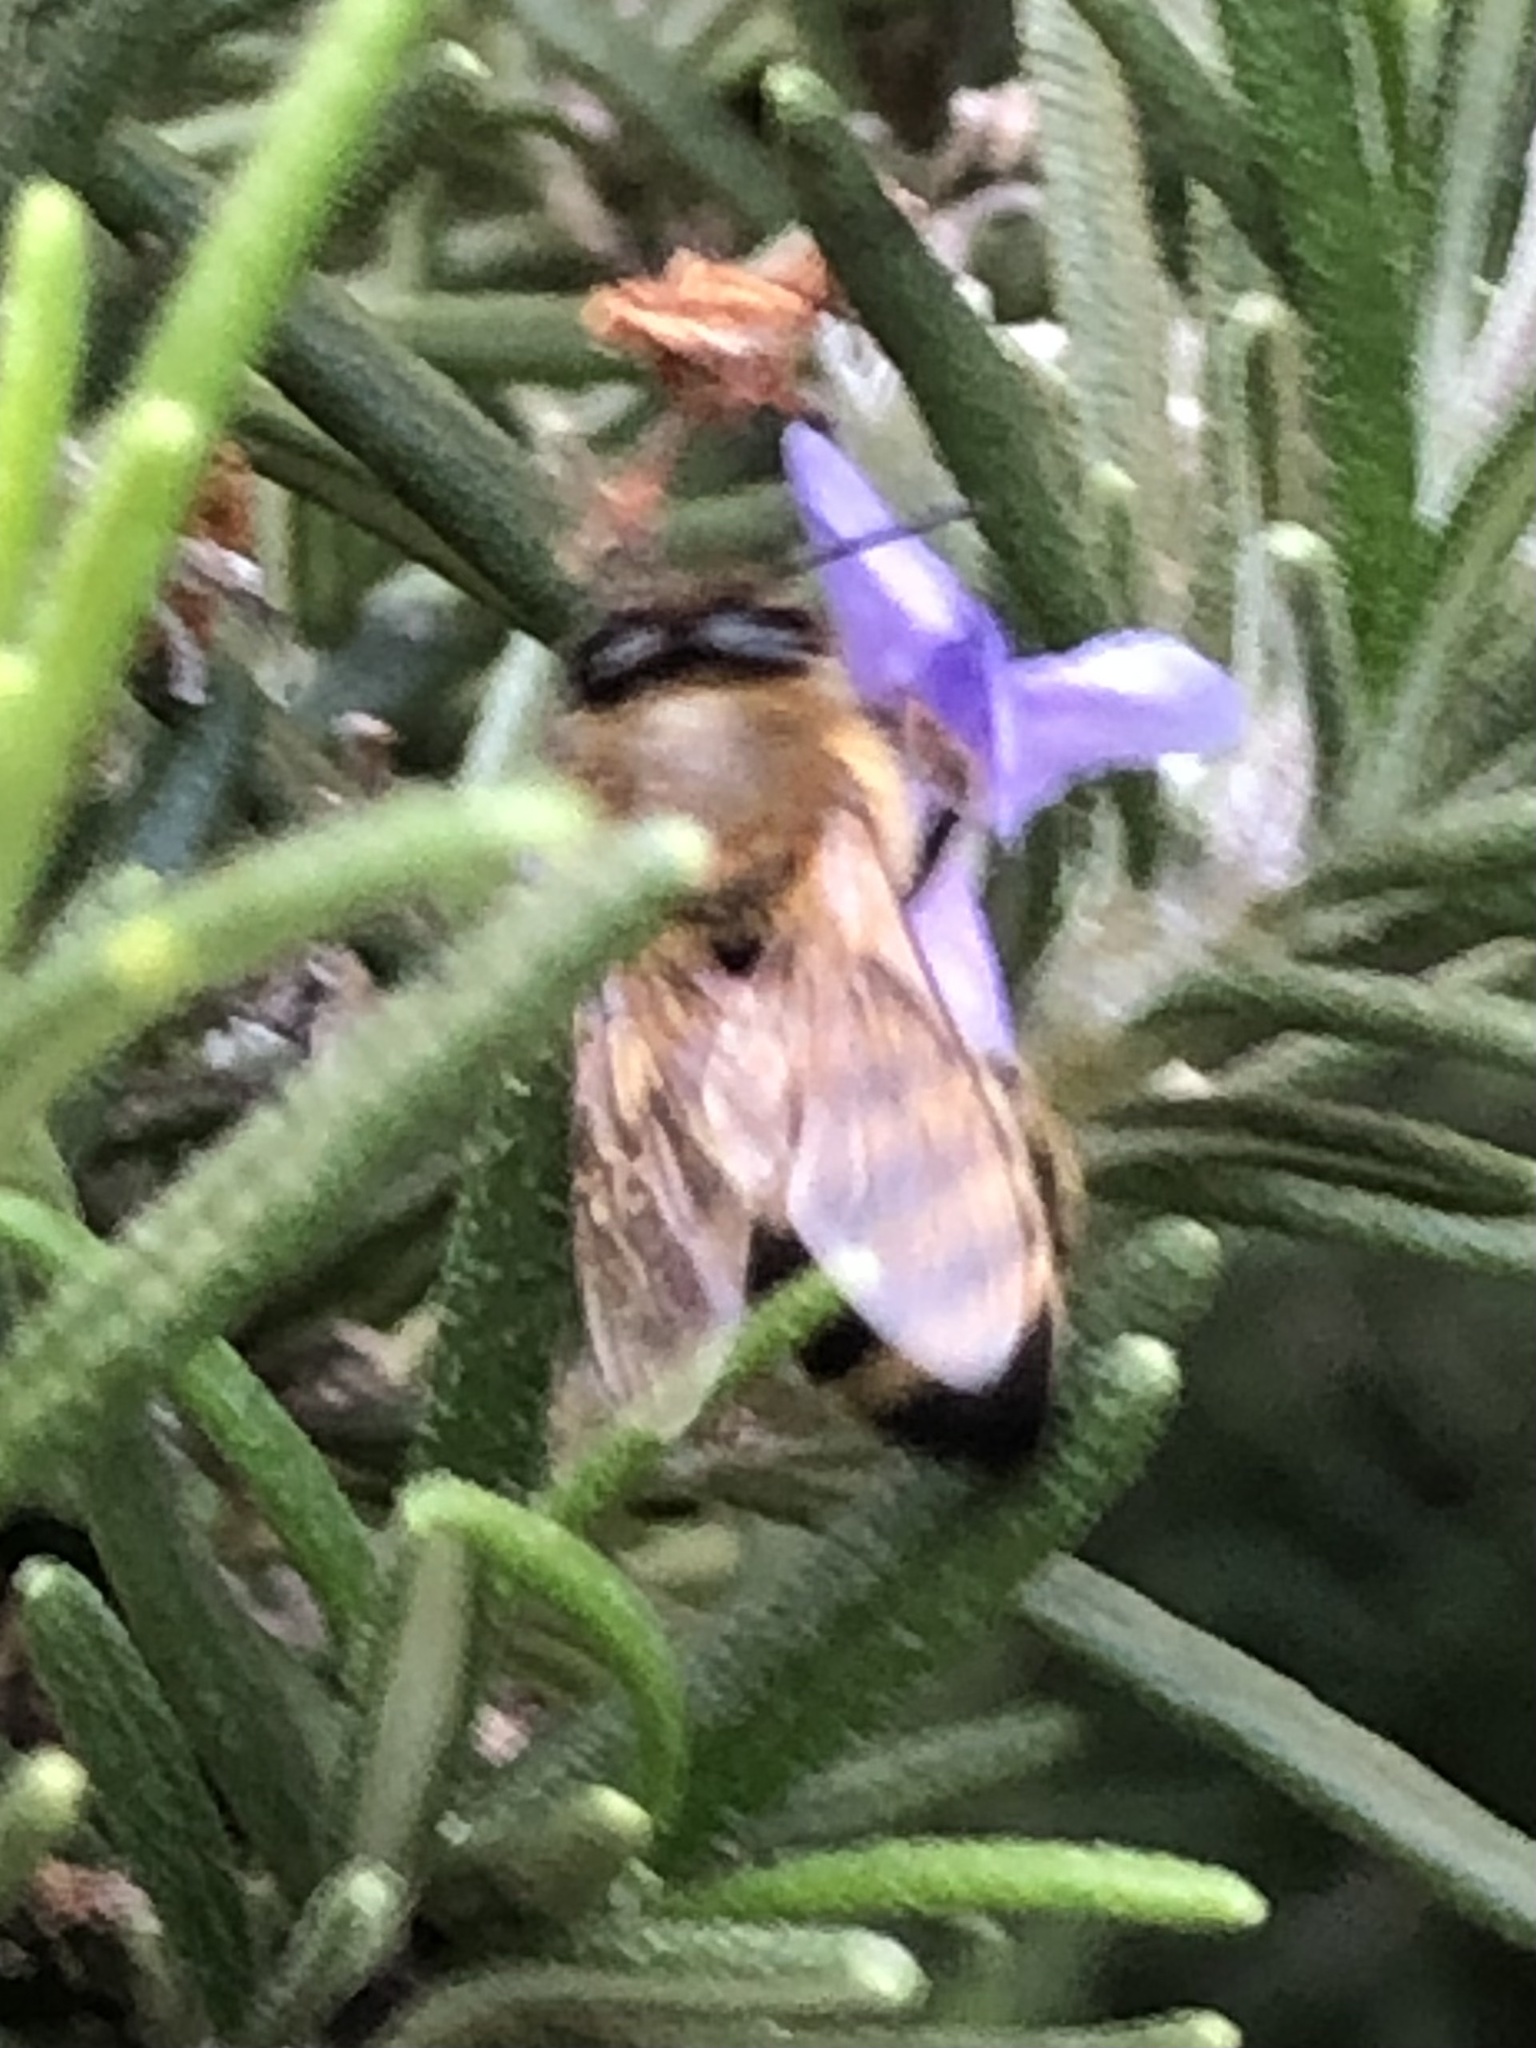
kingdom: Animalia
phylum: Arthropoda
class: Insecta
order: Hymenoptera
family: Apidae
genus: Apis
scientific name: Apis mellifera
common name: Honey bee
